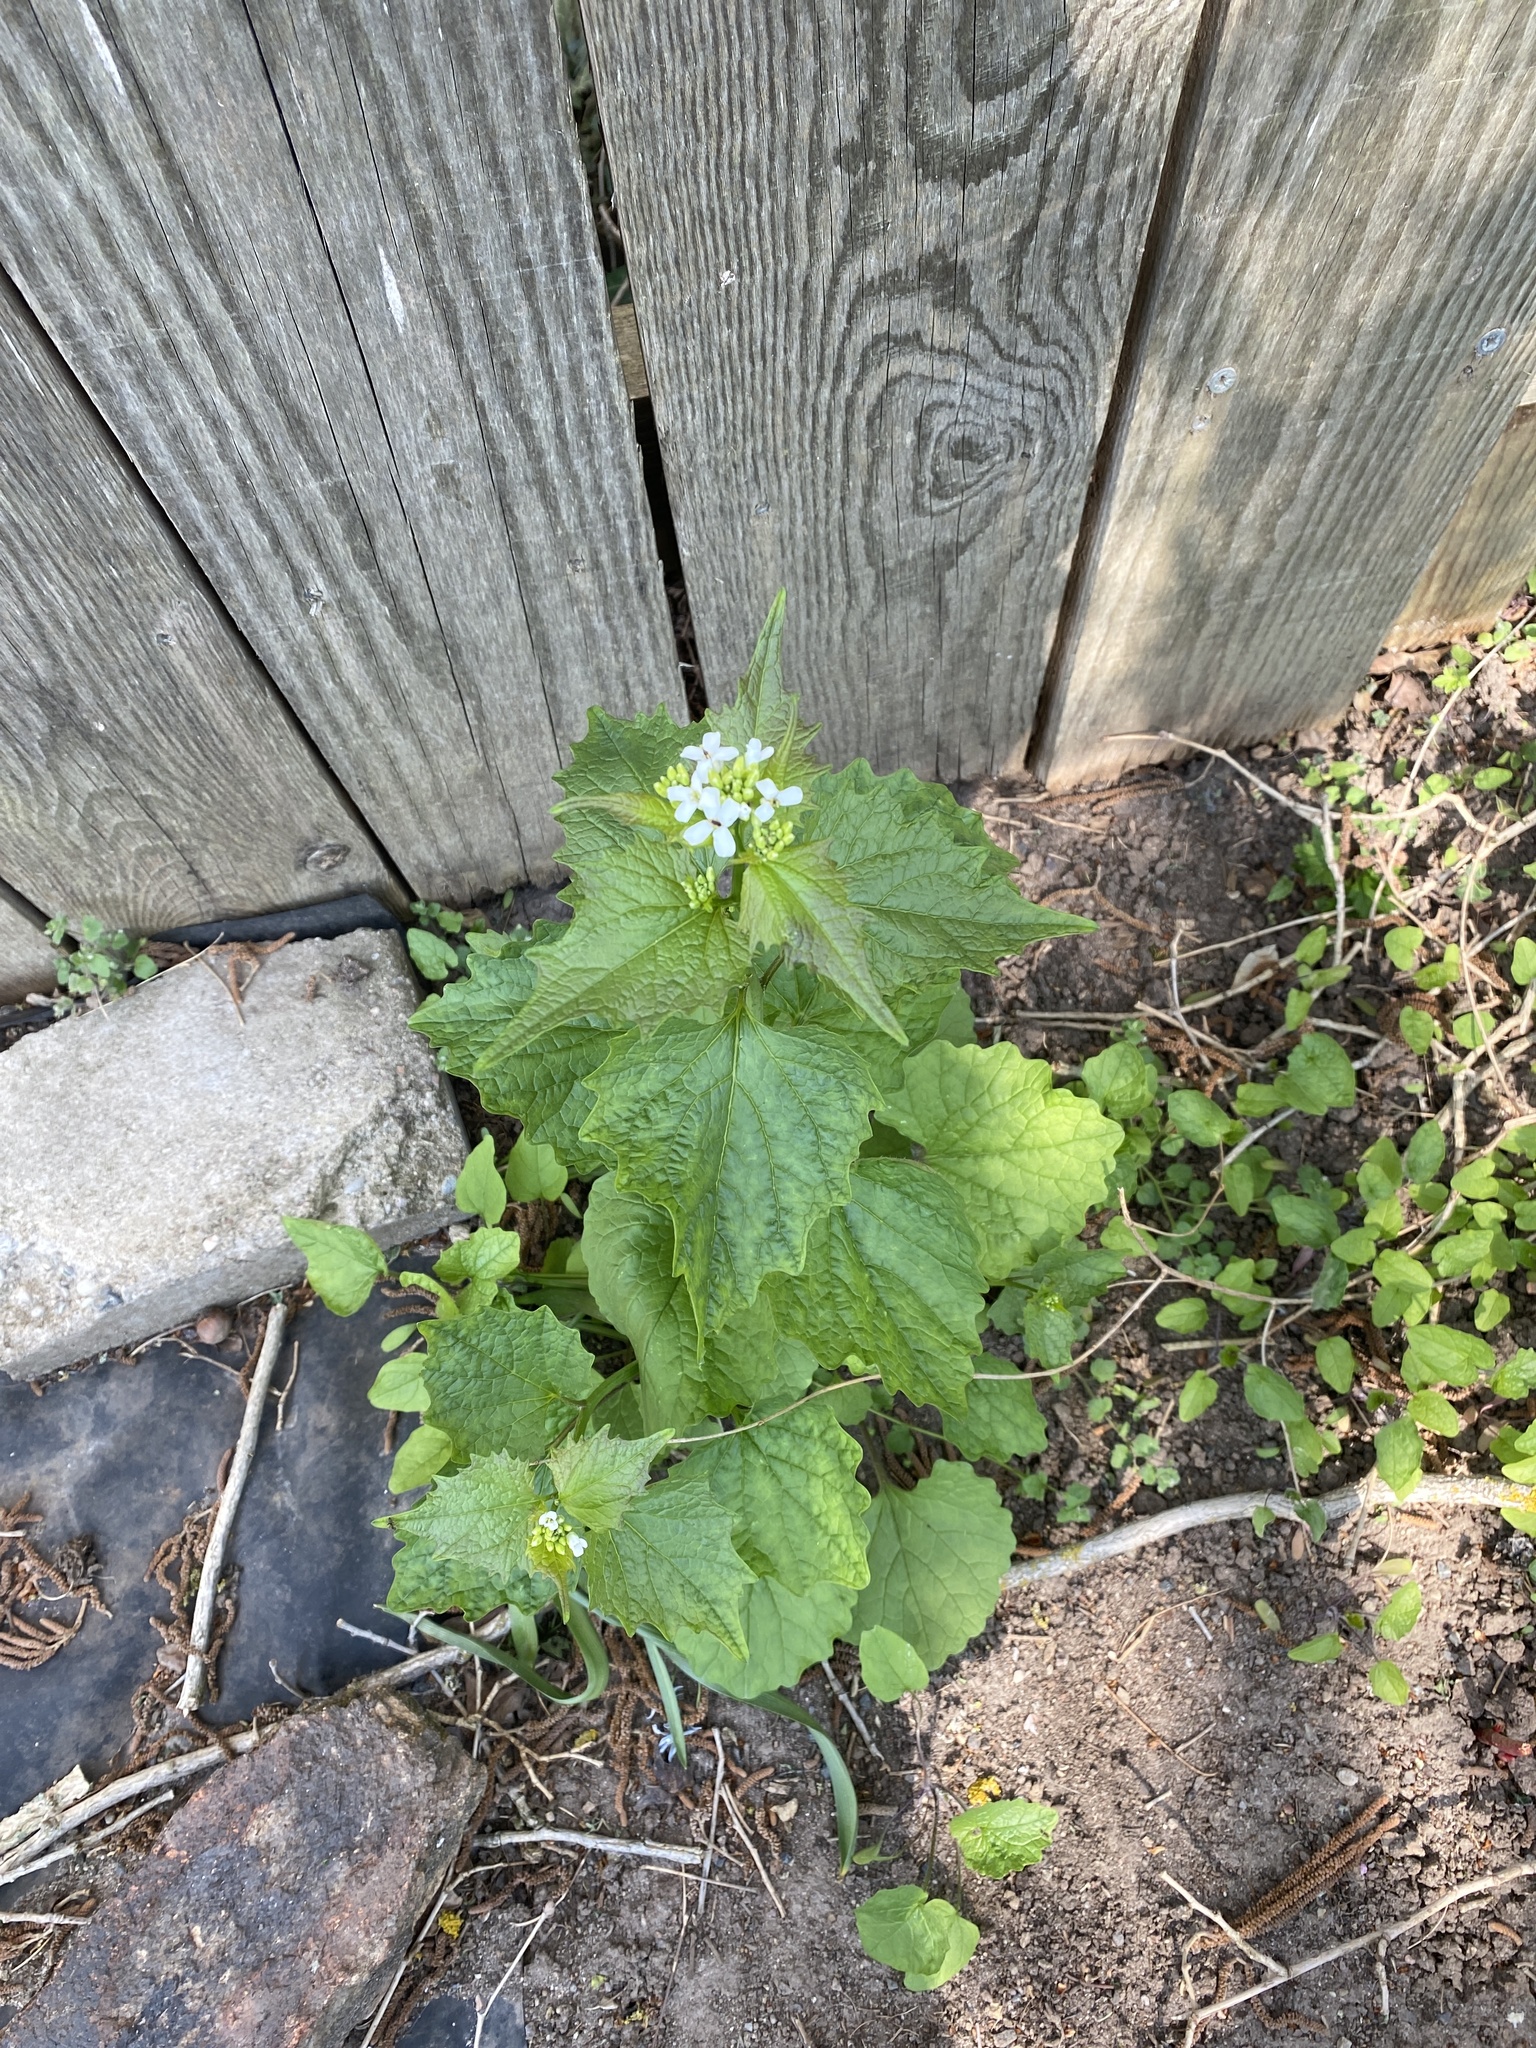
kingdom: Plantae
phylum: Tracheophyta
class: Magnoliopsida
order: Brassicales
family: Brassicaceae
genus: Alliaria
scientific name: Alliaria petiolata
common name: Garlic mustard
